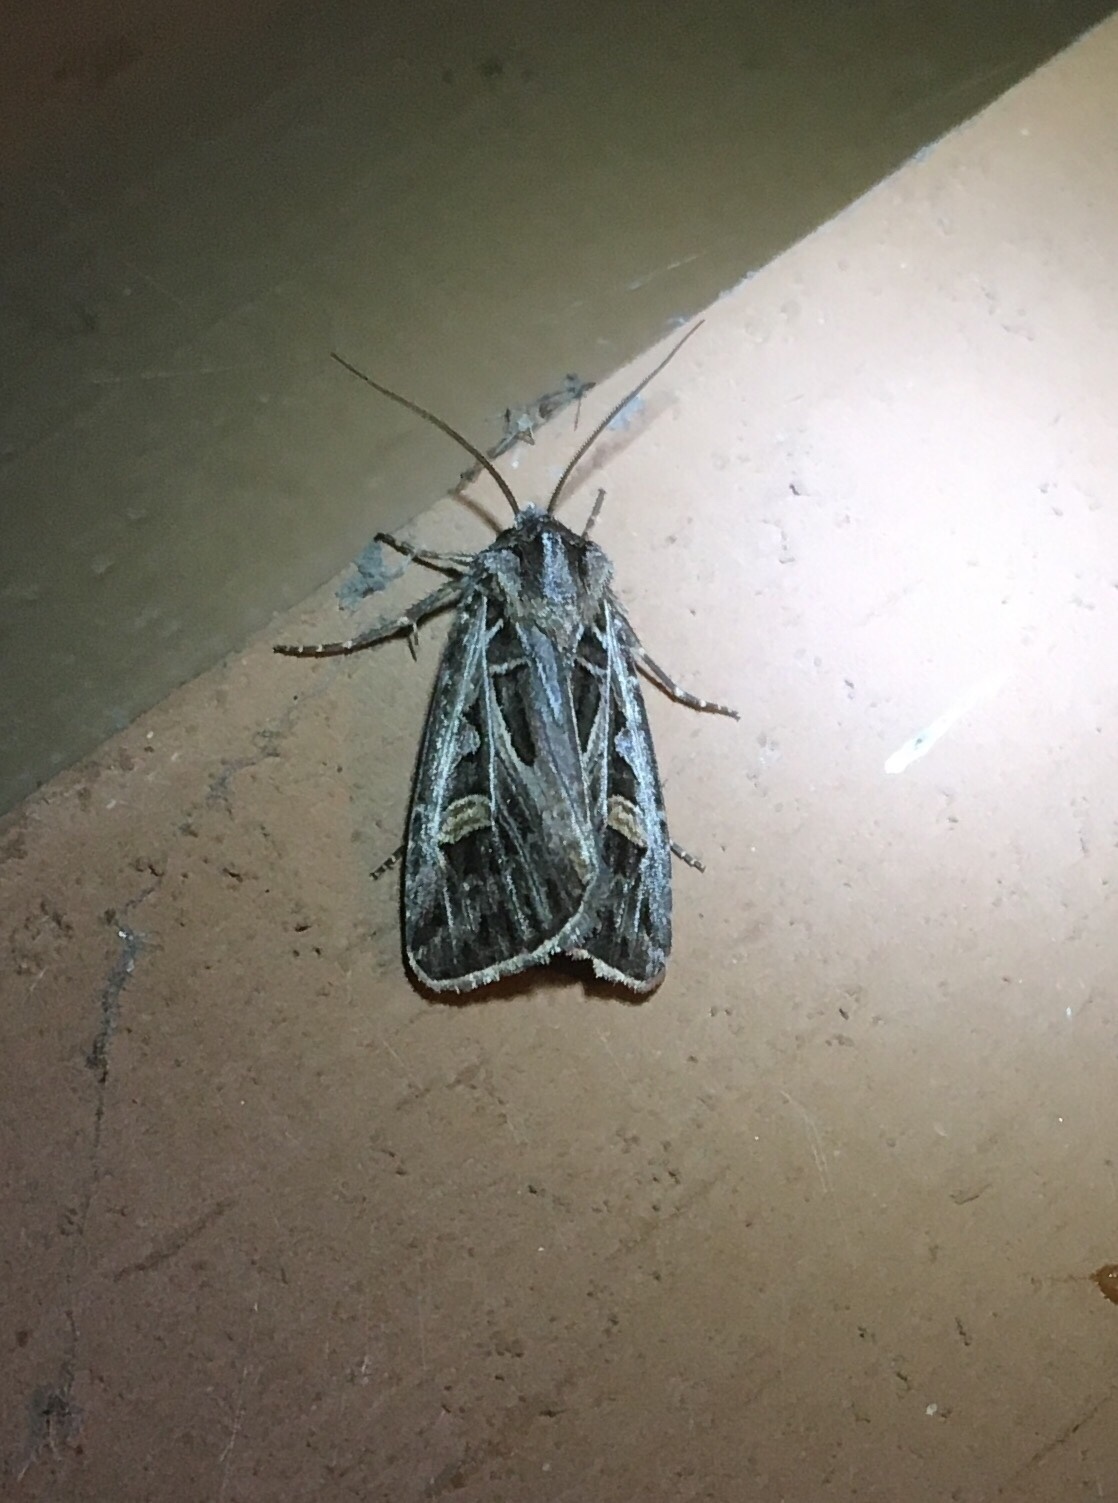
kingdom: Animalia
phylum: Arthropoda
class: Insecta
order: Lepidoptera
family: Noctuidae
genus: Feltia
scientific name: Feltia jaculifera
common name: Dingy cutworm moth
